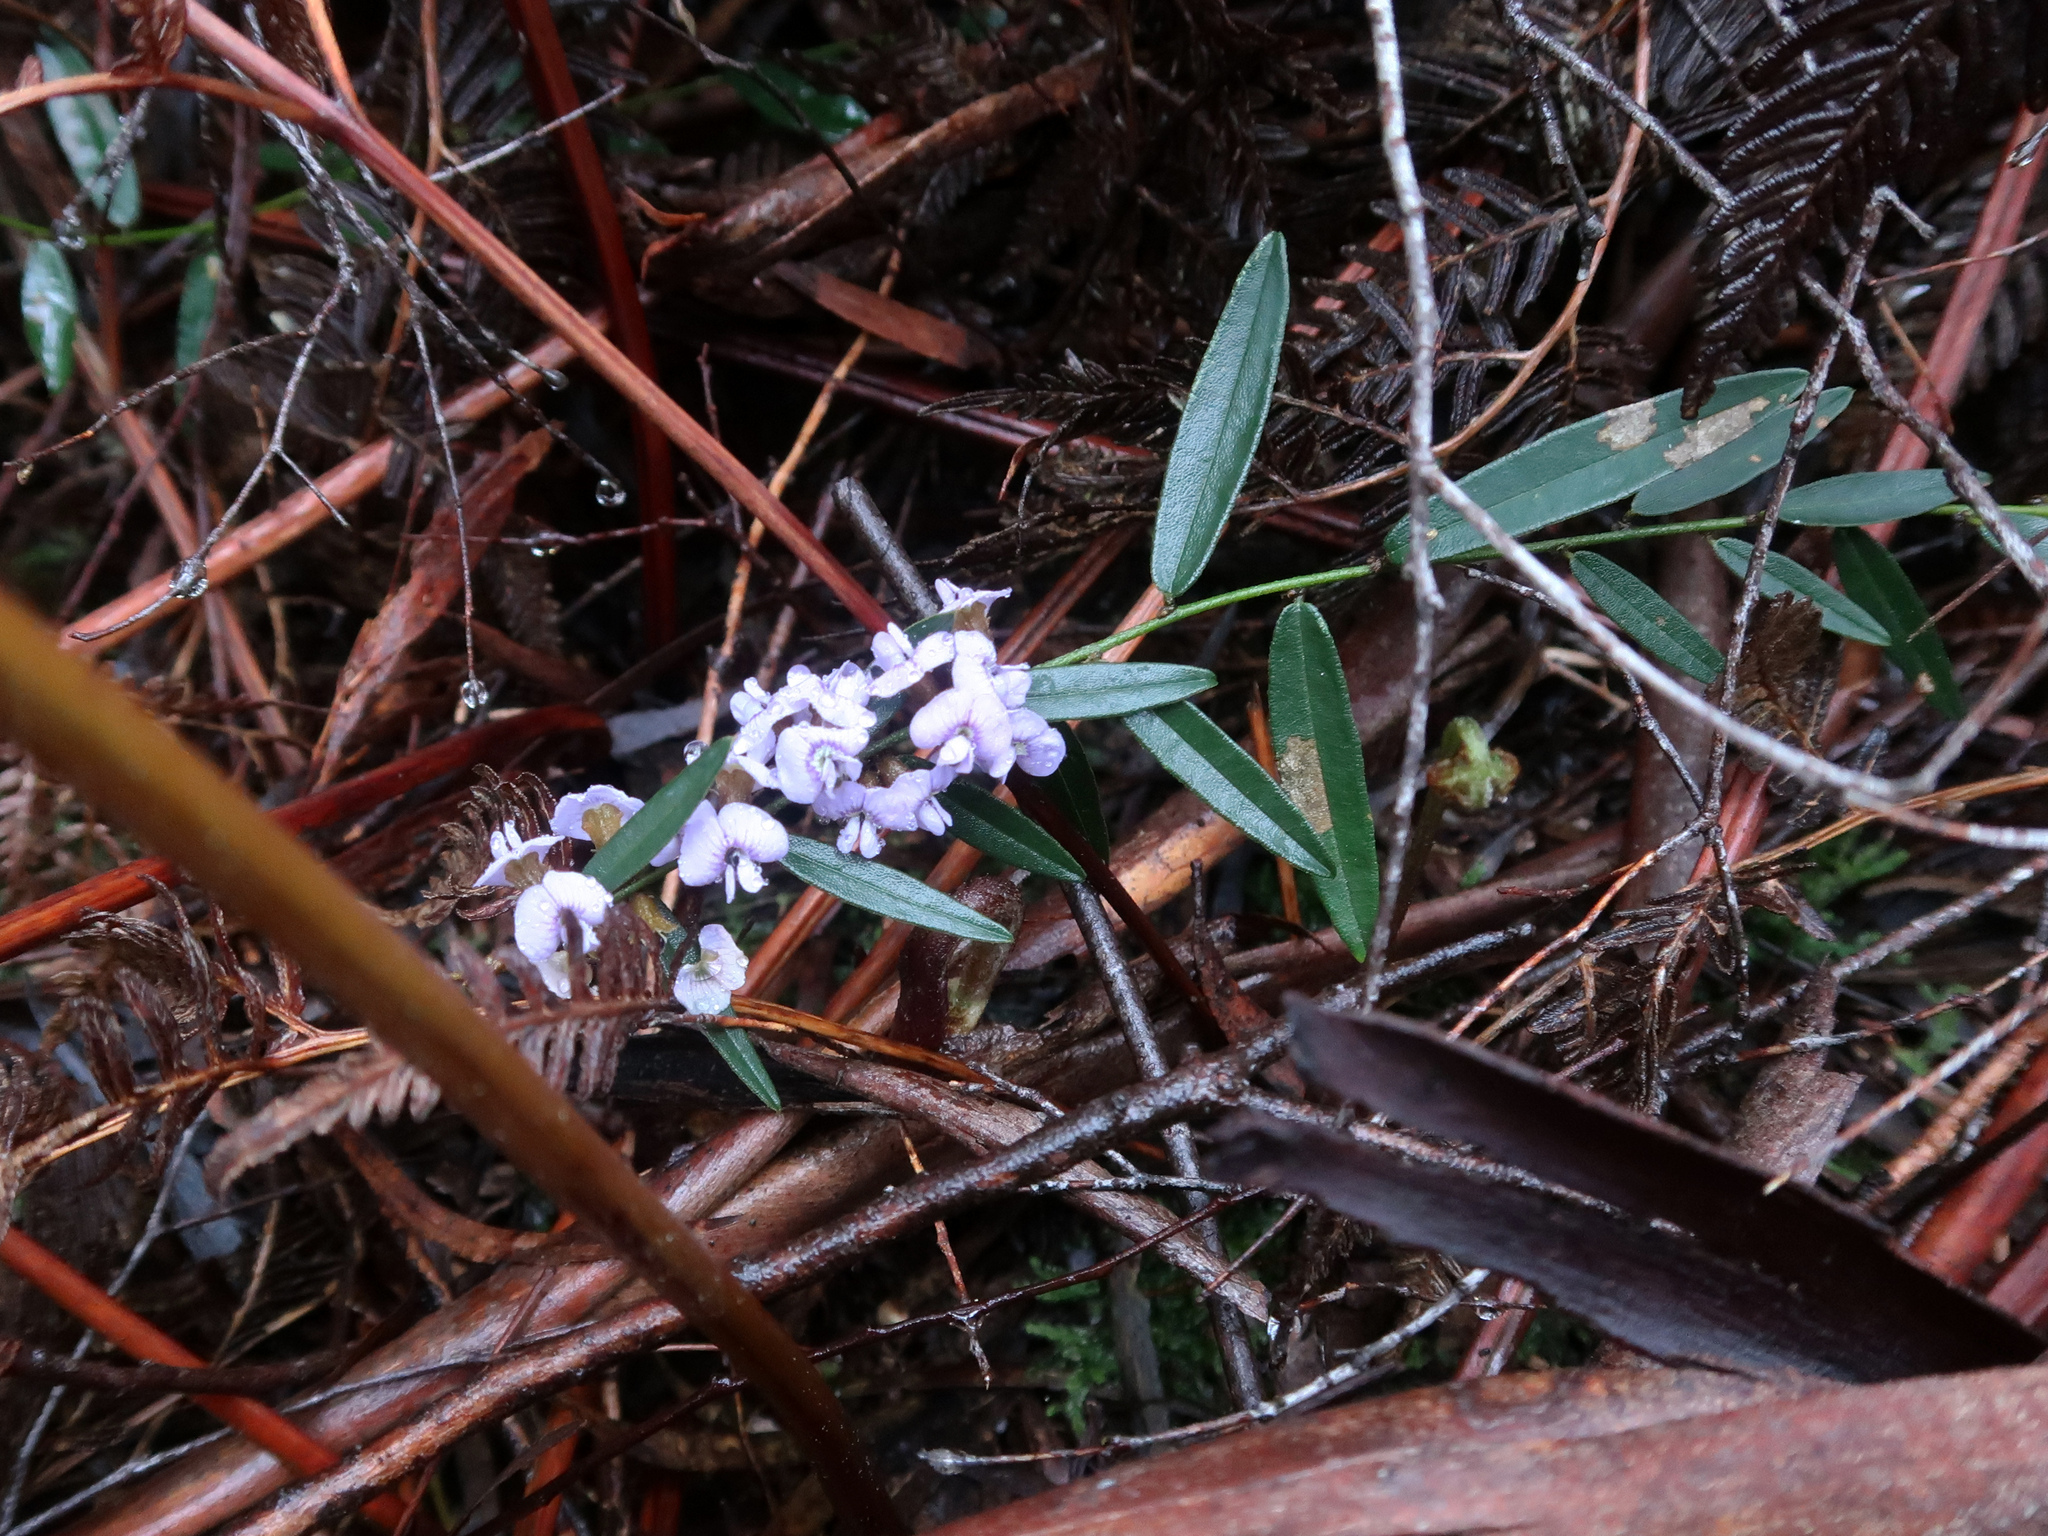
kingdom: Plantae
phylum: Tracheophyta
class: Magnoliopsida
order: Fabales
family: Fabaceae
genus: Hovea
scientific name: Hovea heterophylla
